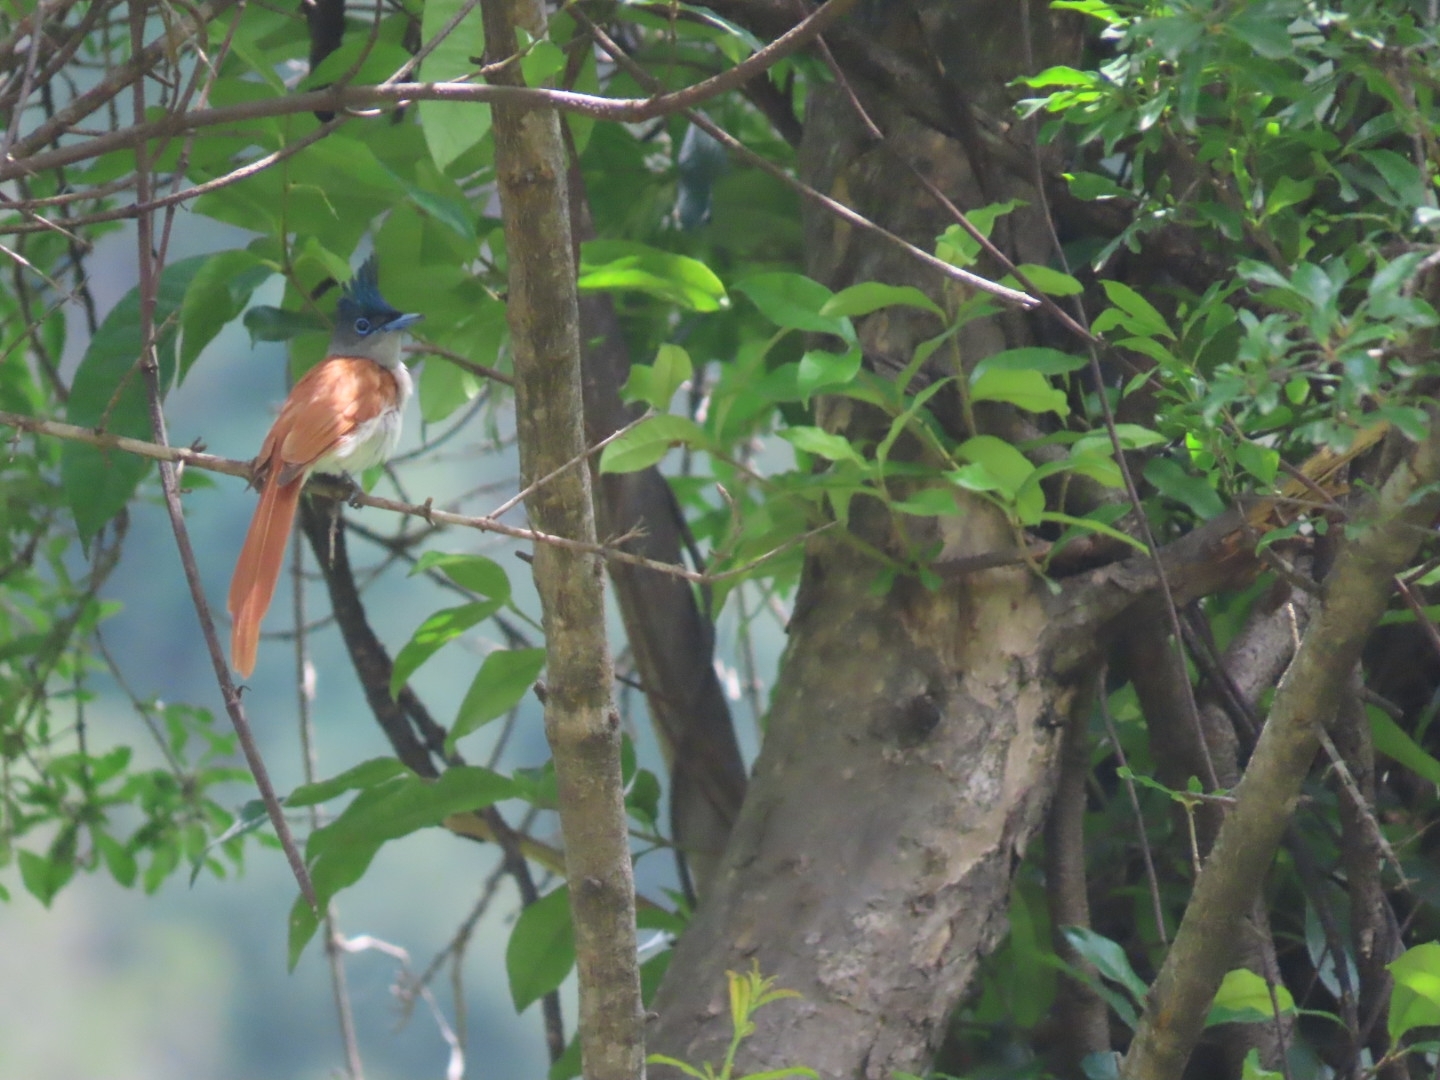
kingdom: Animalia
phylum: Chordata
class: Aves
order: Passeriformes
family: Monarchidae
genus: Terpsiphone
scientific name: Terpsiphone paradisi
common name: Indian paradise flycatcher
